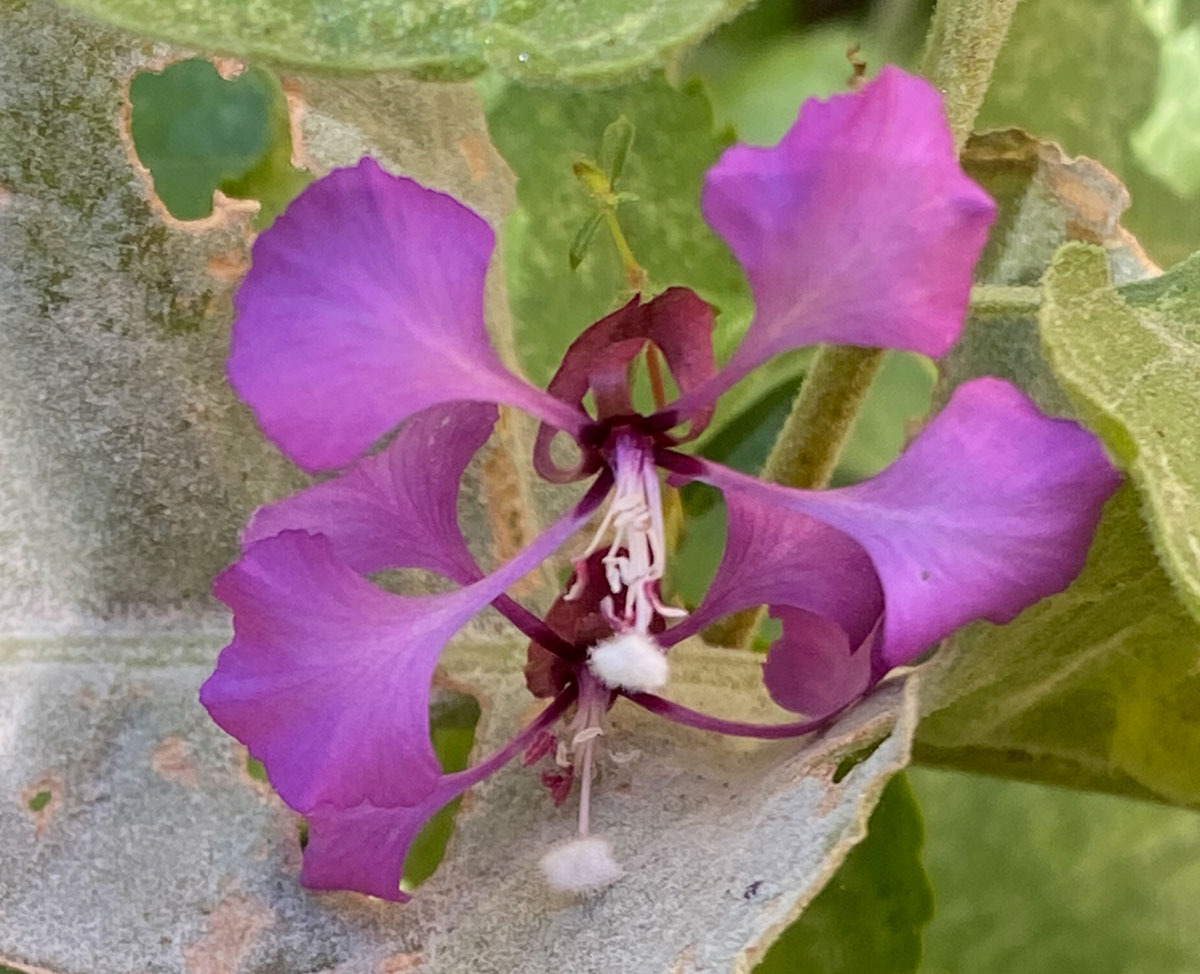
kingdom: Plantae
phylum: Tracheophyta
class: Magnoliopsida
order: Myrtales
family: Onagraceae
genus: Clarkia
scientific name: Clarkia unguiculata
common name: Clarkia
